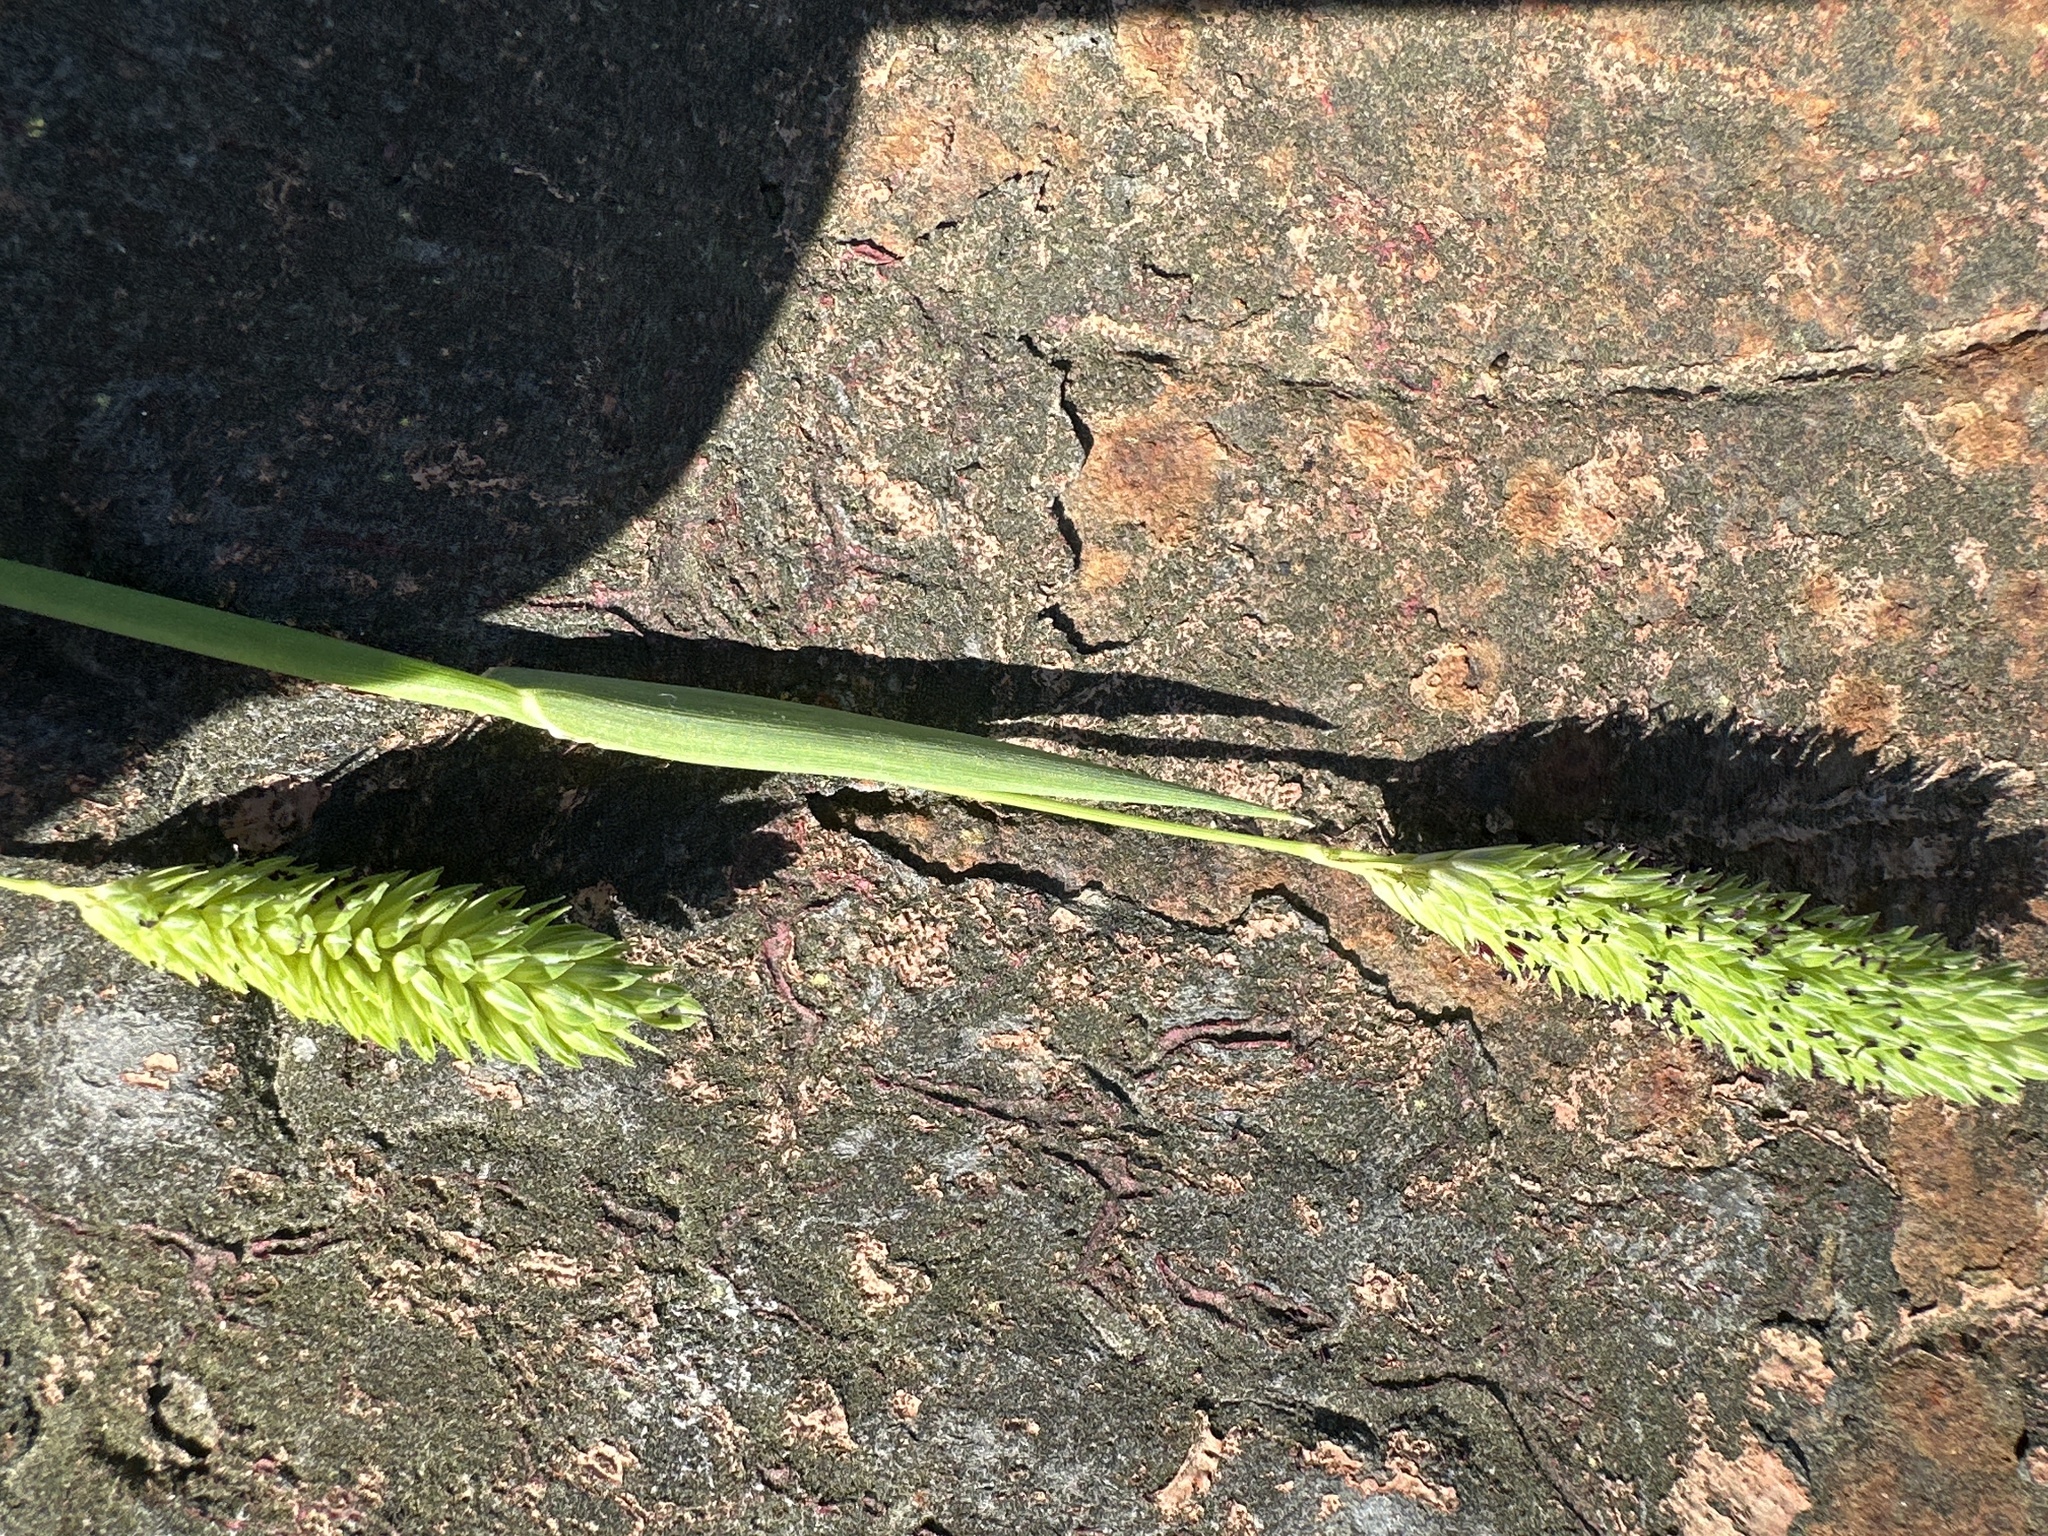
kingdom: Plantae
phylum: Tracheophyta
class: Liliopsida
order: Poales
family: Poaceae
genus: Phalaris
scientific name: Phalaris caroliniana
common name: May grass
